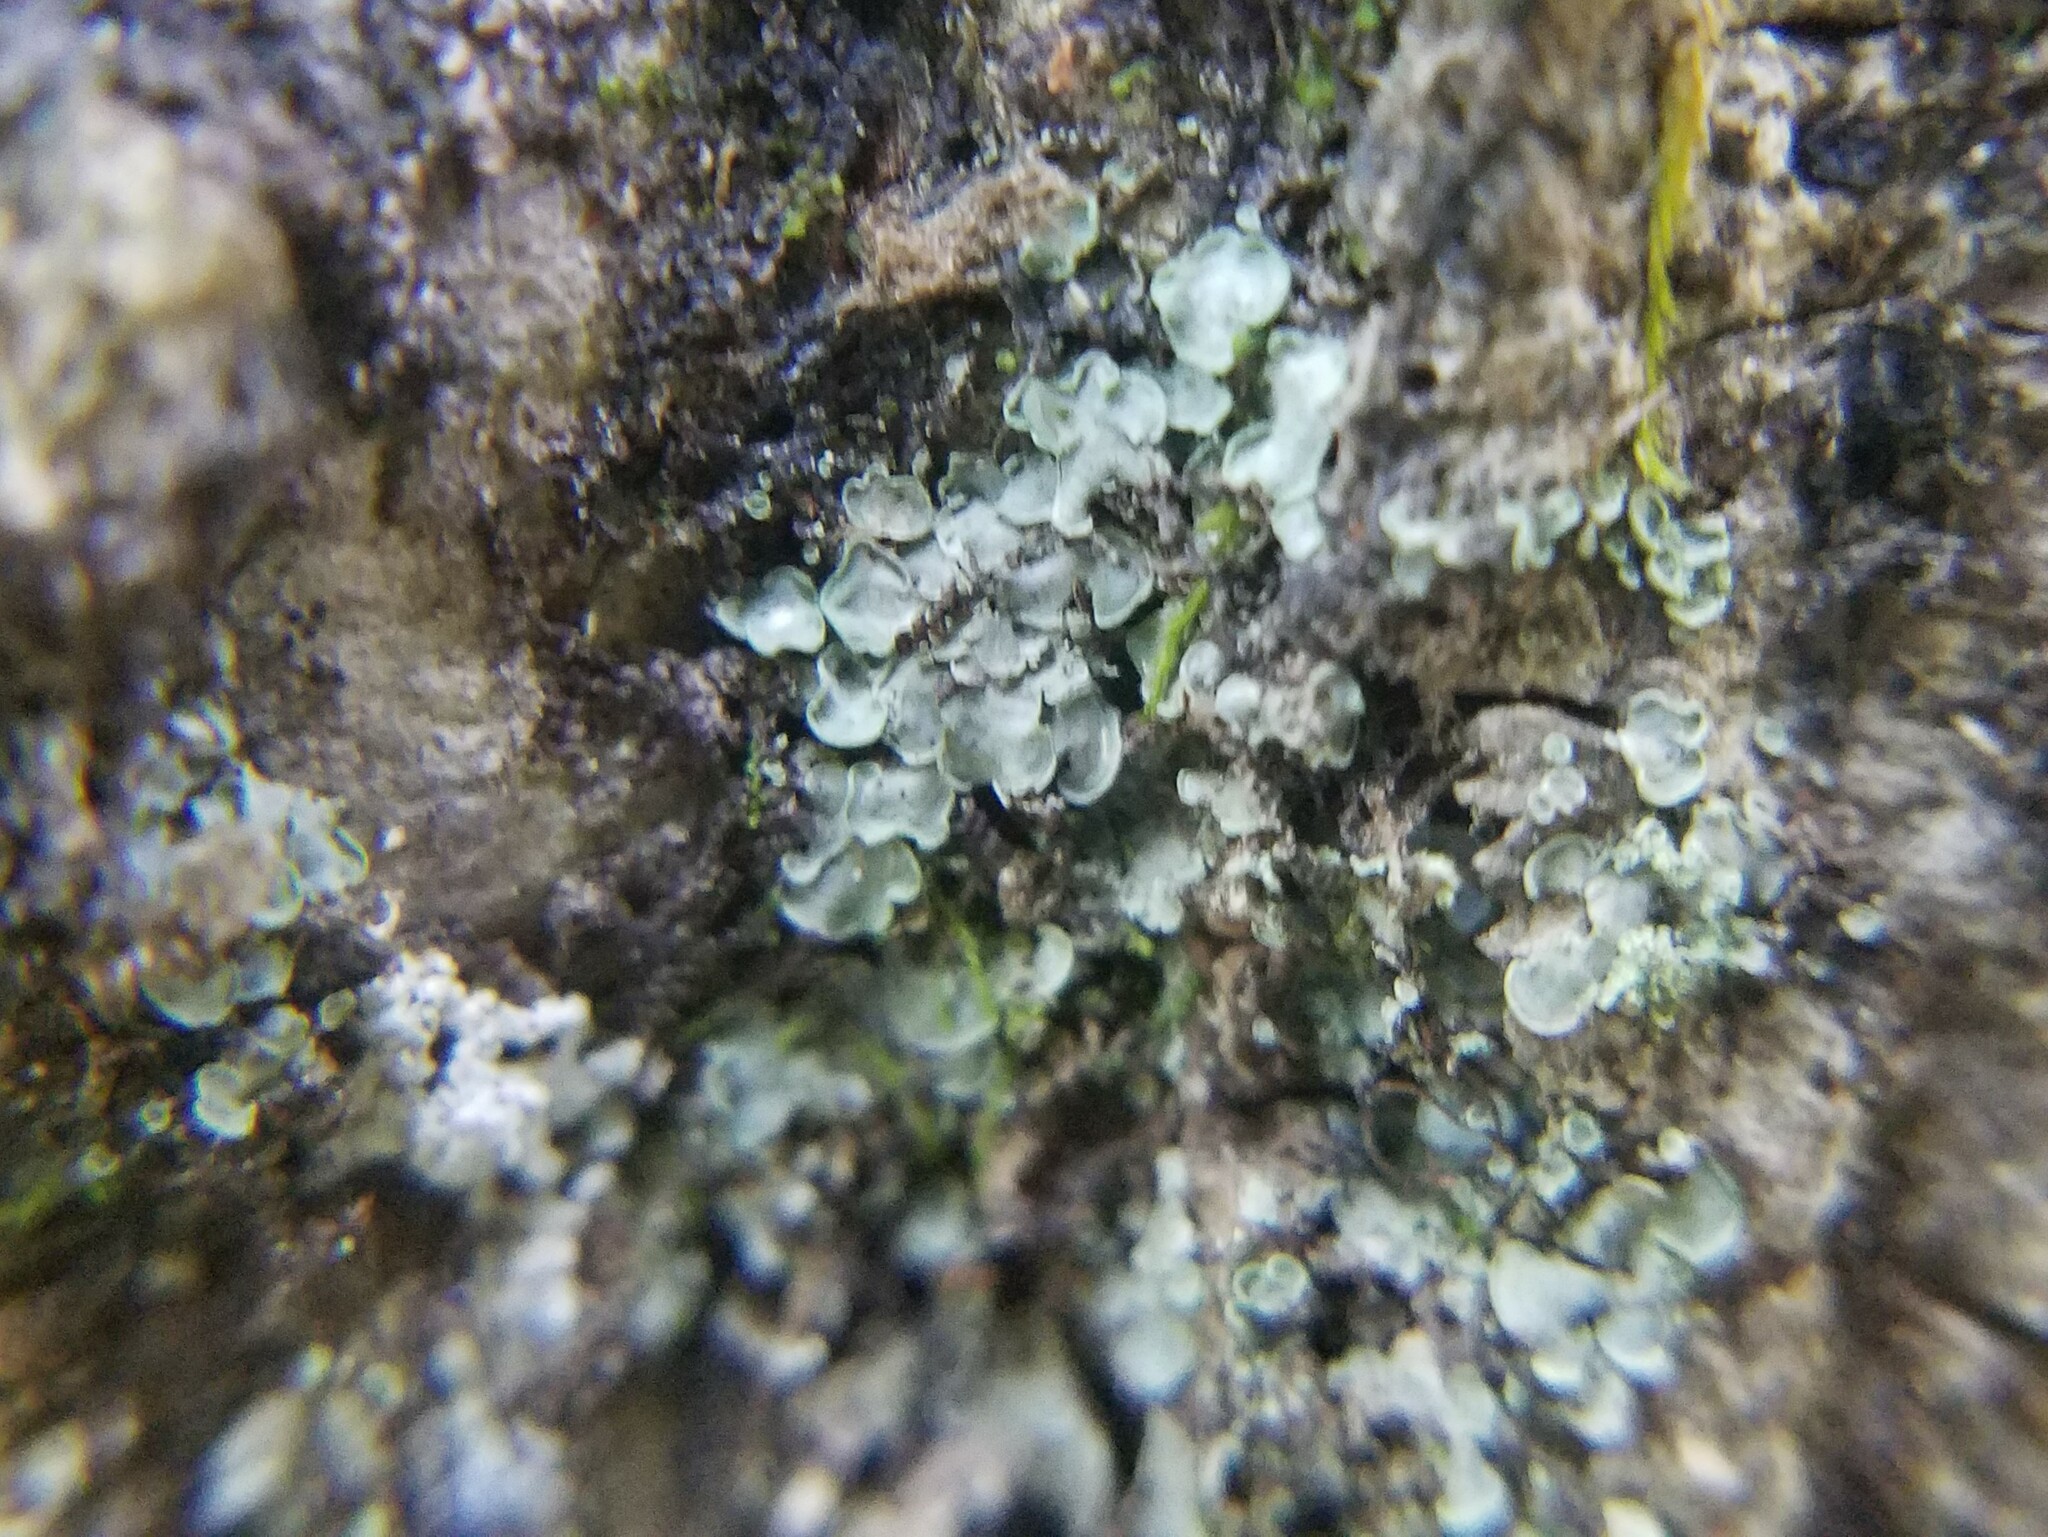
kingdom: Fungi
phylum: Ascomycota
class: Eurotiomycetes
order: Verrucariales
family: Verrucariaceae
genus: Normandina
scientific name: Normandina pulchella
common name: Elf ears lichen
